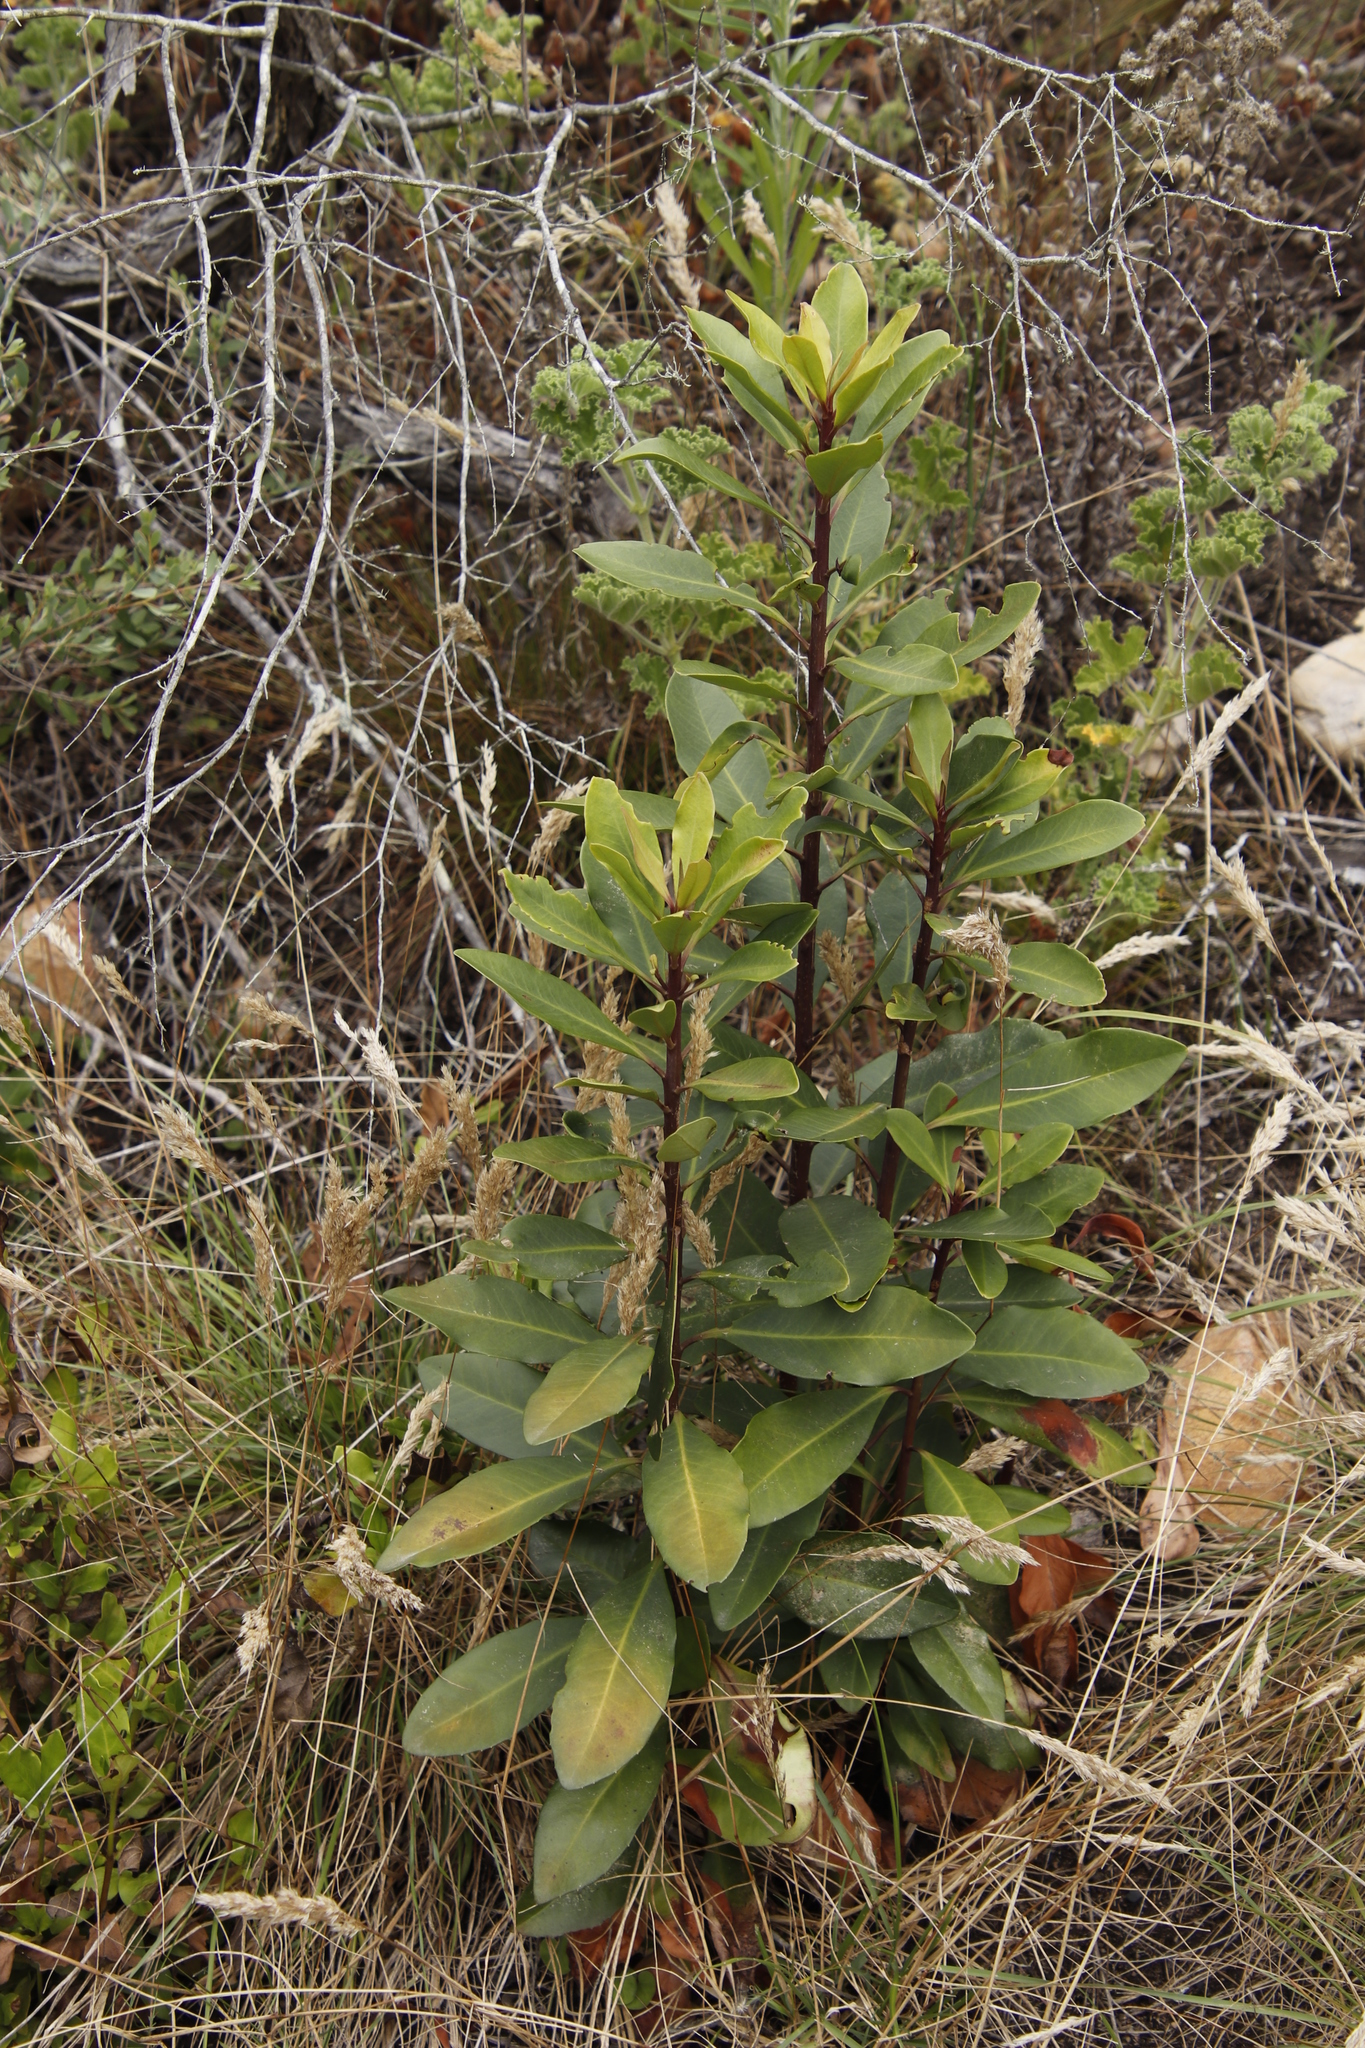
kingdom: Plantae
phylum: Tracheophyta
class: Magnoliopsida
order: Ericales
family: Primulaceae
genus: Myrsine
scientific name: Myrsine melanophloeos
